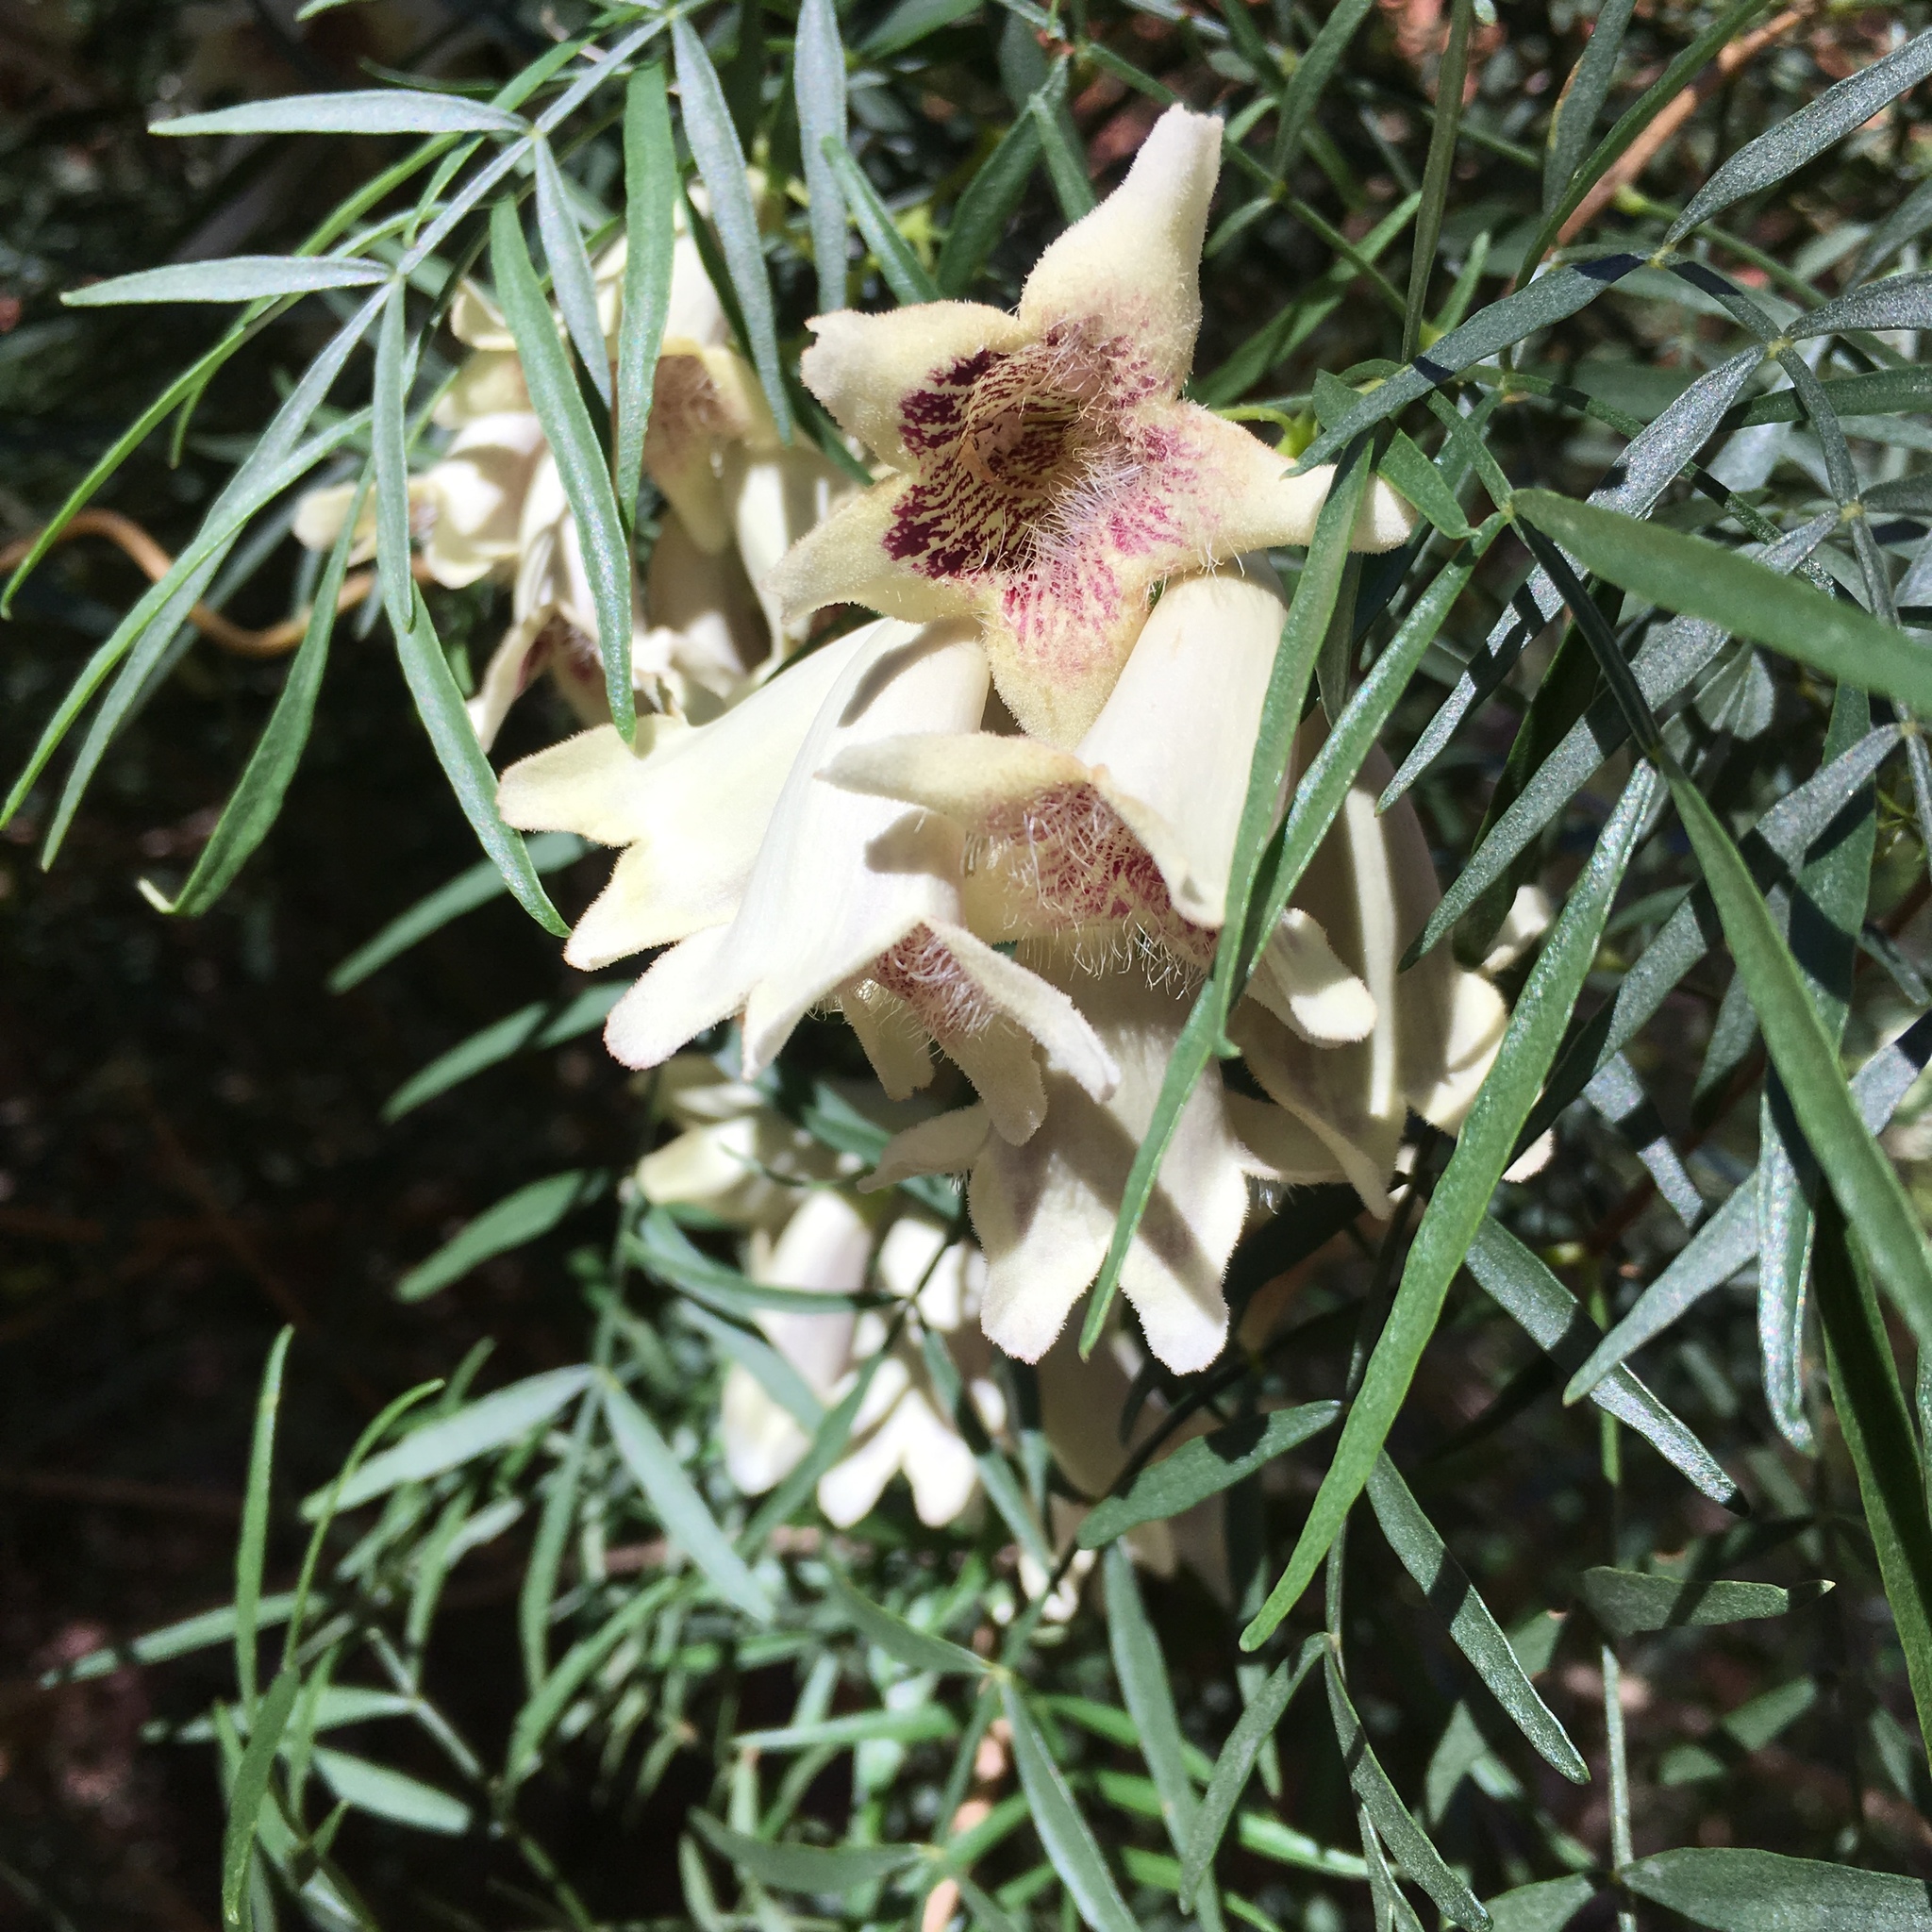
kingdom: Plantae
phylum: Tracheophyta
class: Magnoliopsida
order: Lamiales
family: Bignoniaceae
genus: Pandorea
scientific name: Pandorea doratoxylon
